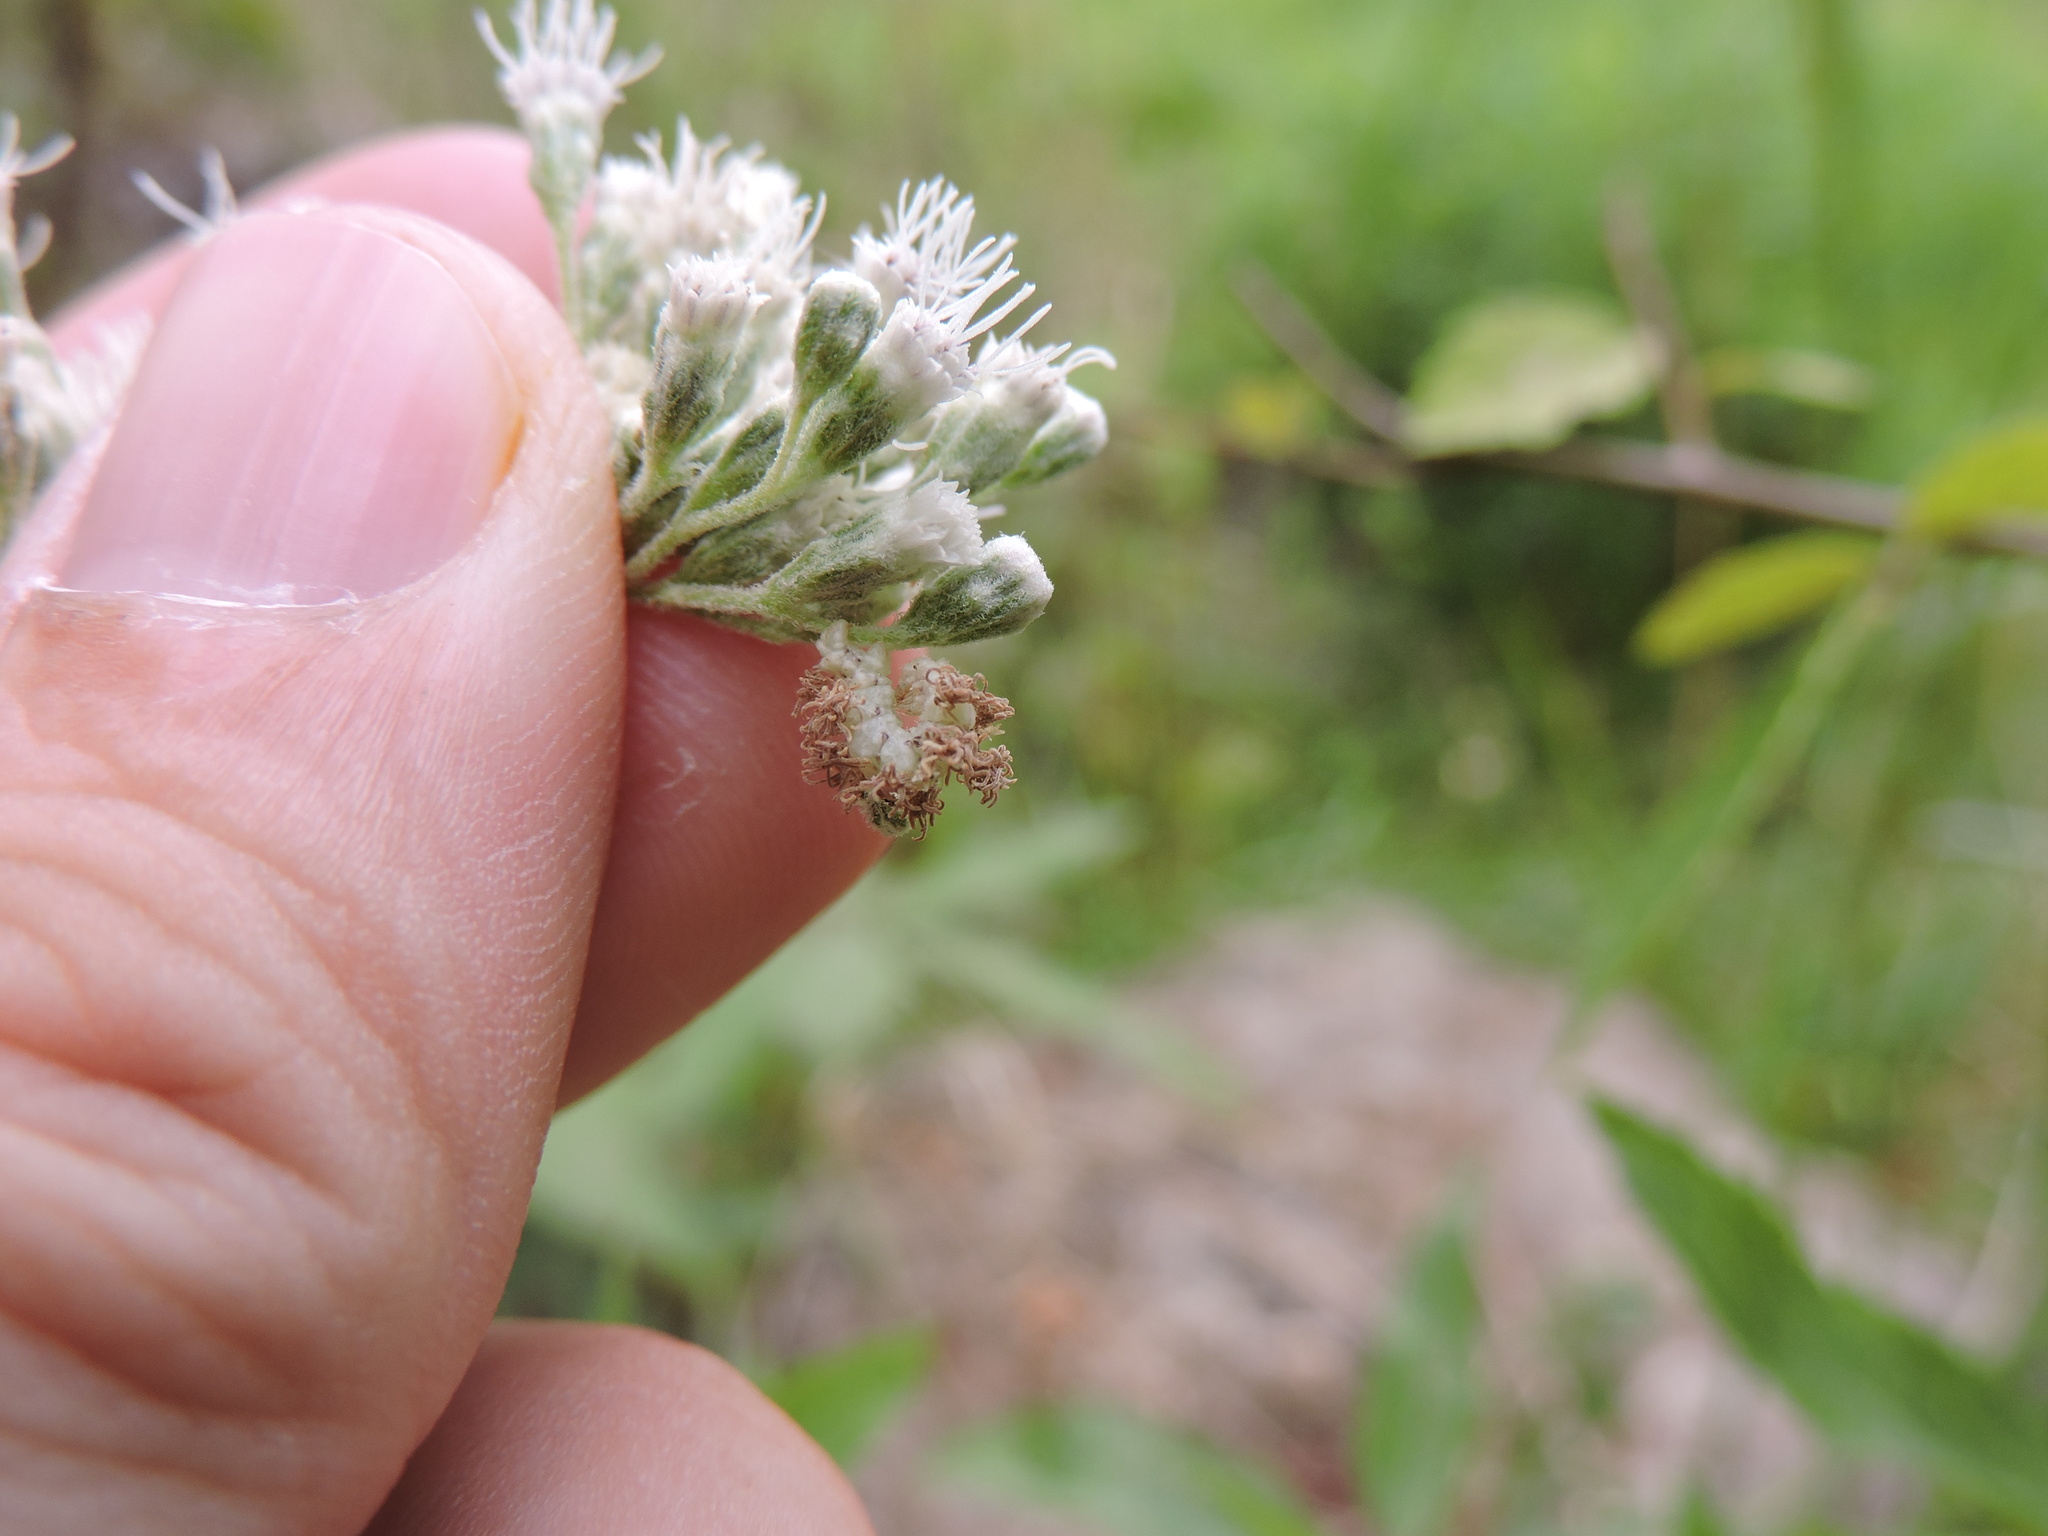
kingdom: Animalia
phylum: Arthropoda
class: Insecta
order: Lepidoptera
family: Geometridae
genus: Synchlora
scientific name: Synchlora
